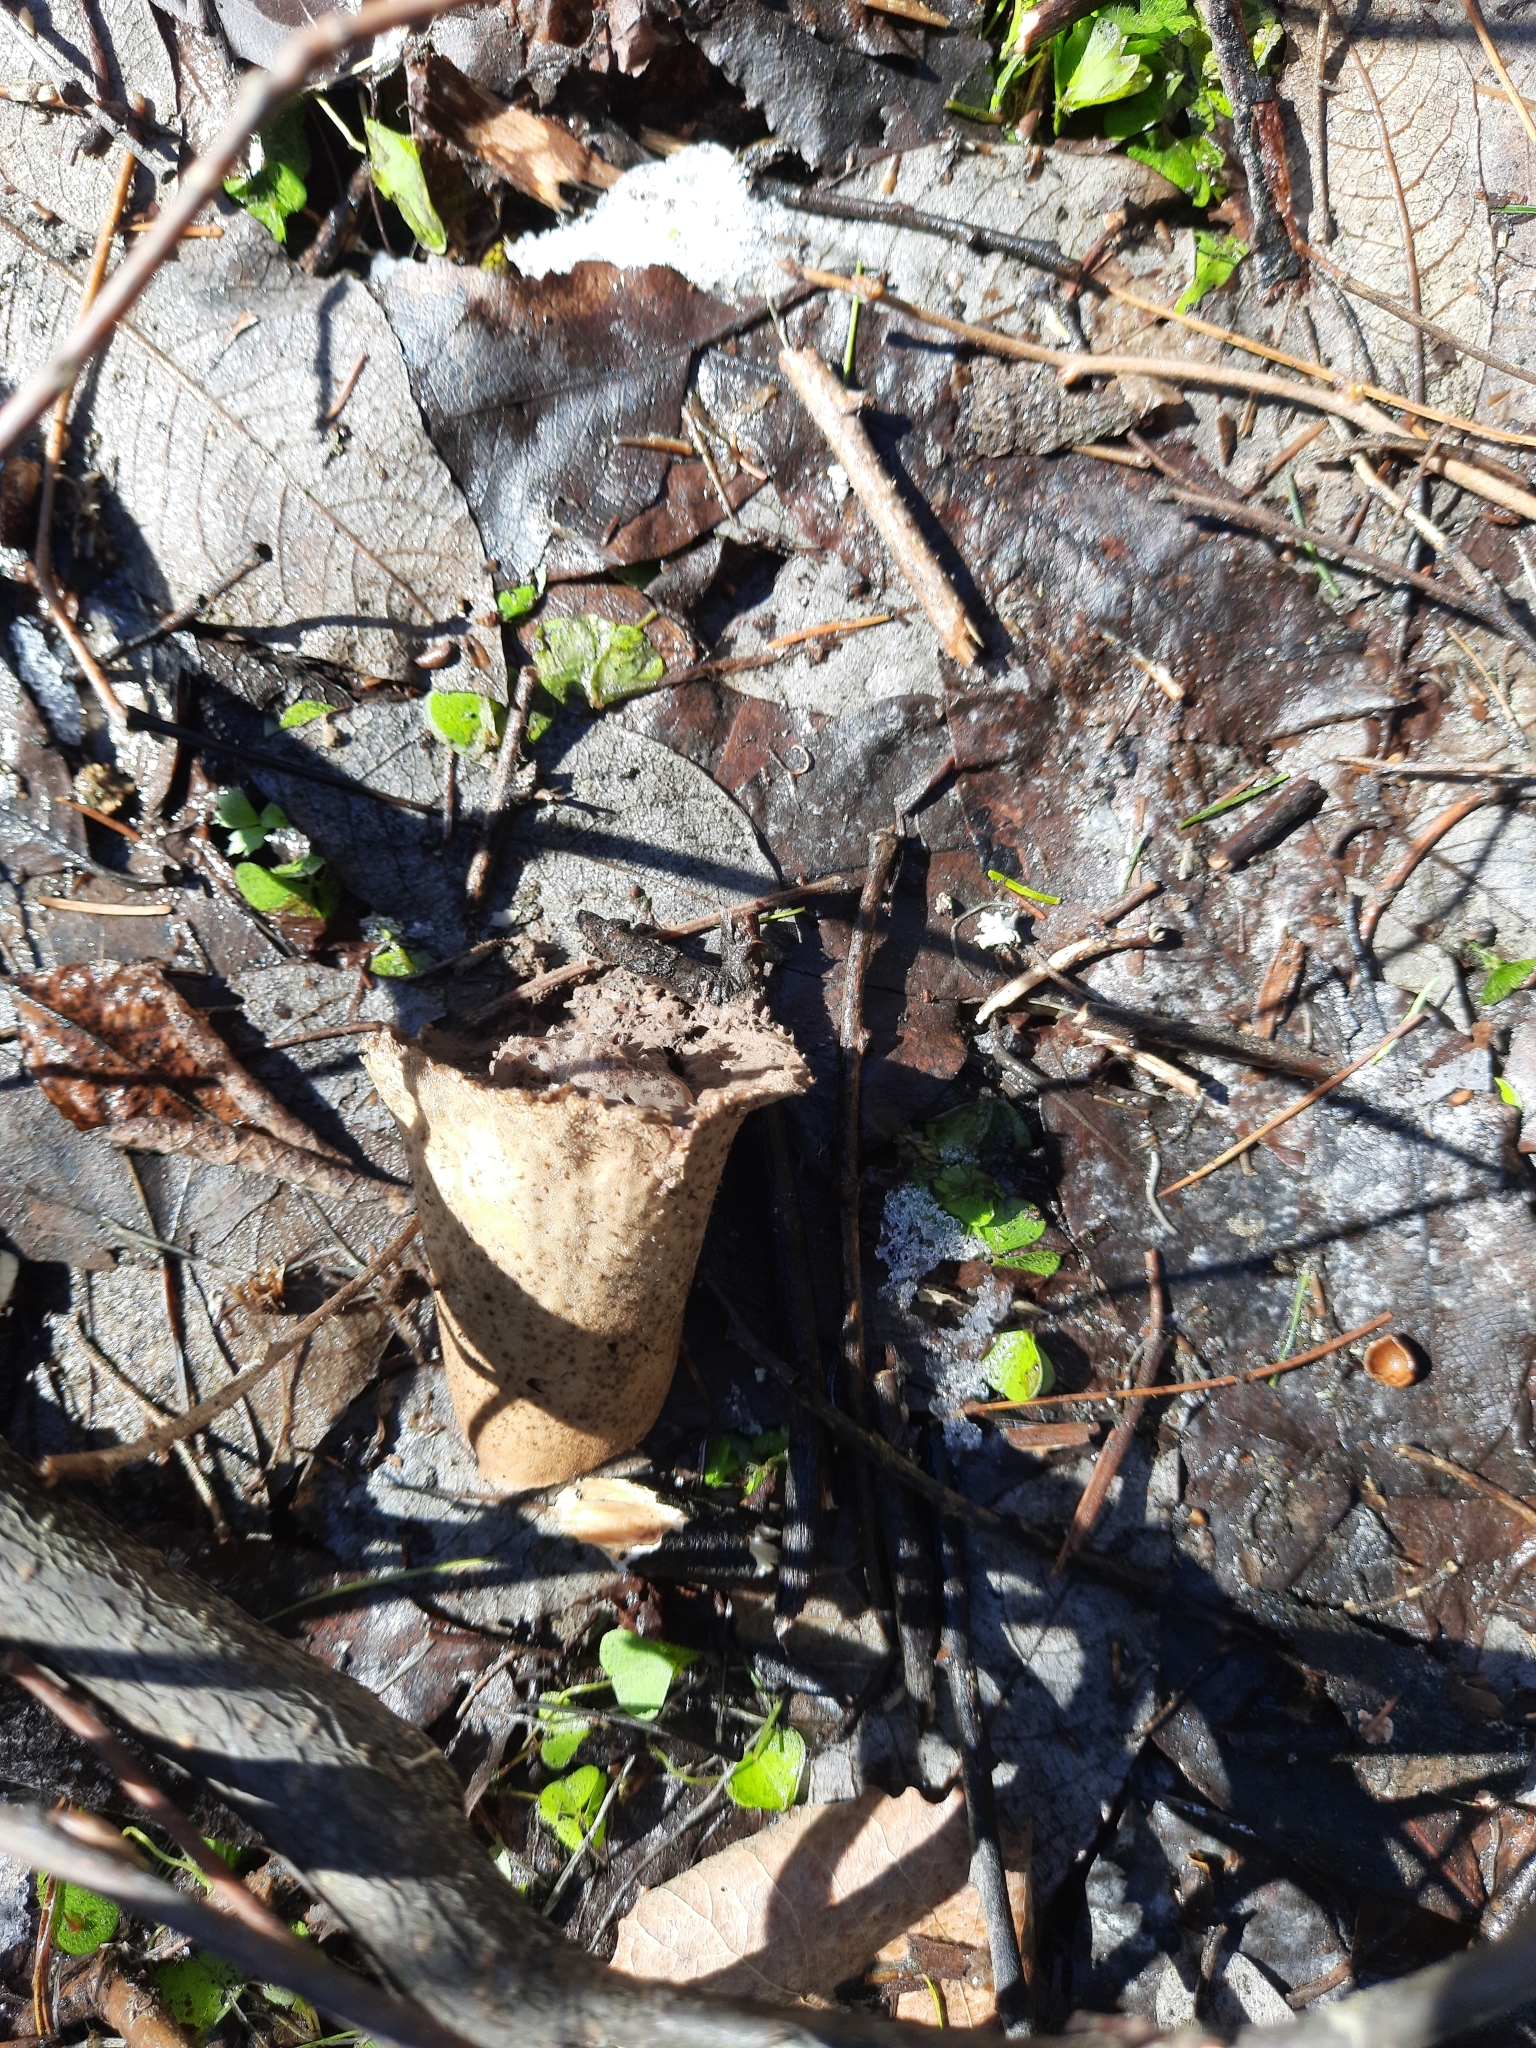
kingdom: Fungi
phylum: Basidiomycota
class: Agaricomycetes
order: Agaricales
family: Lycoperdaceae
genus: Lycoperdon
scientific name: Lycoperdon excipuliforme
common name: Pestle puffball
